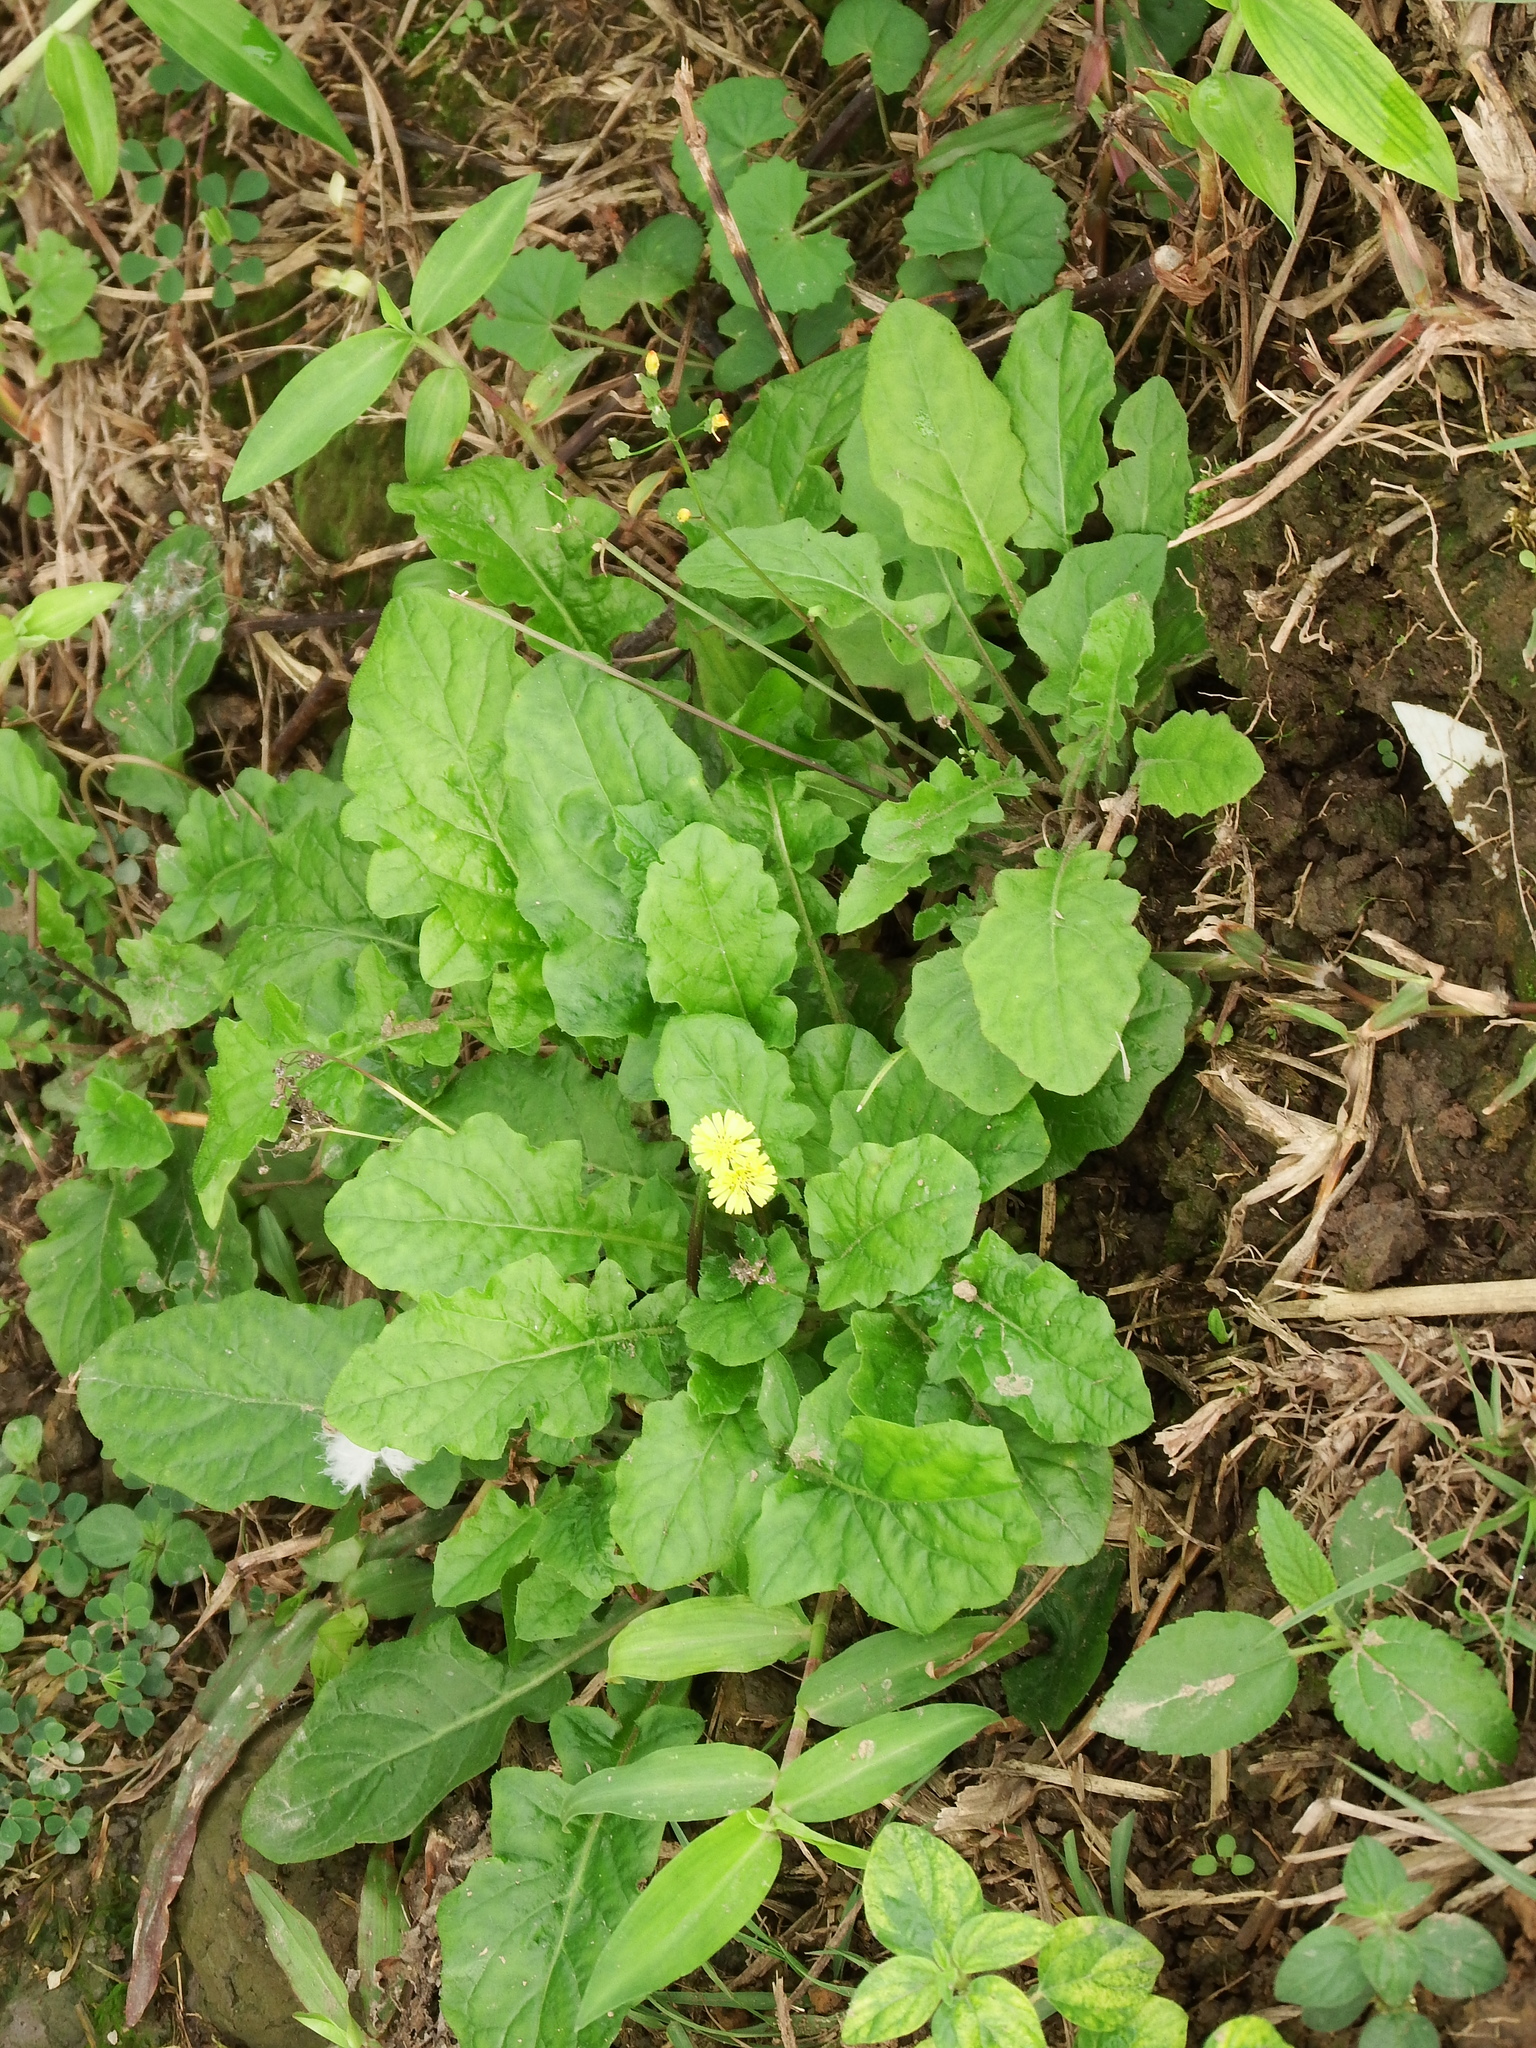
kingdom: Plantae
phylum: Tracheophyta
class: Magnoliopsida
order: Asterales
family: Asteraceae
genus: Youngia
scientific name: Youngia japonica
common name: Oriental false hawksbeard
